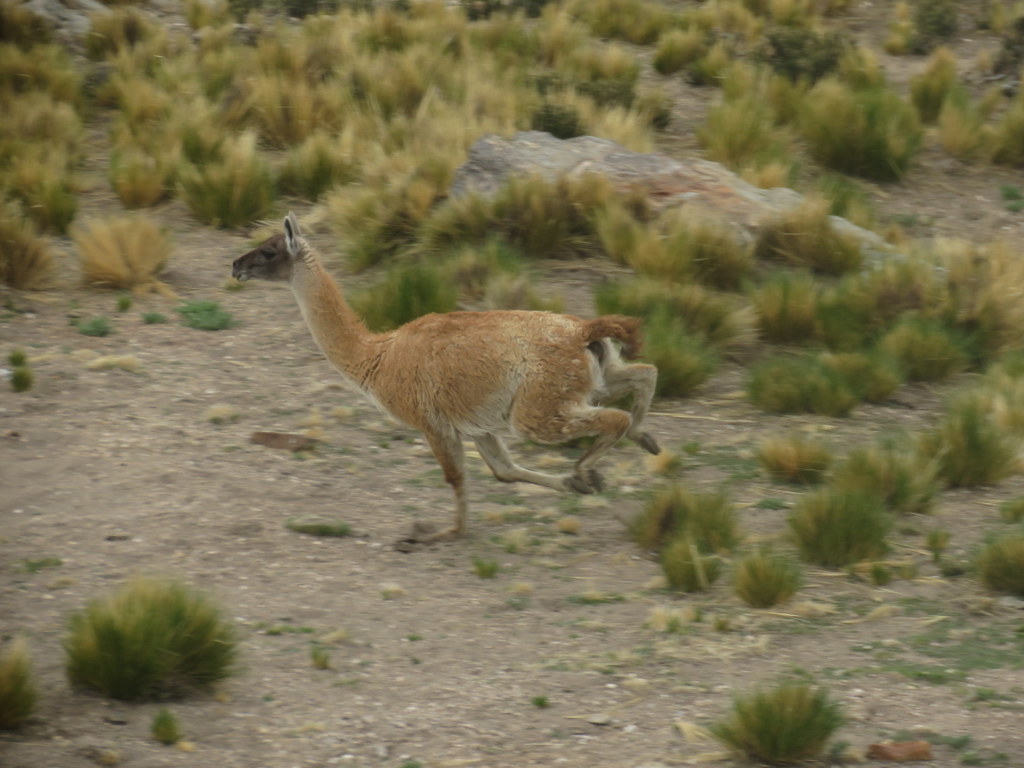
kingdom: Animalia
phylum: Chordata
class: Mammalia
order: Artiodactyla
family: Camelidae
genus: Lama
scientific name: Lama glama
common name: Llama
